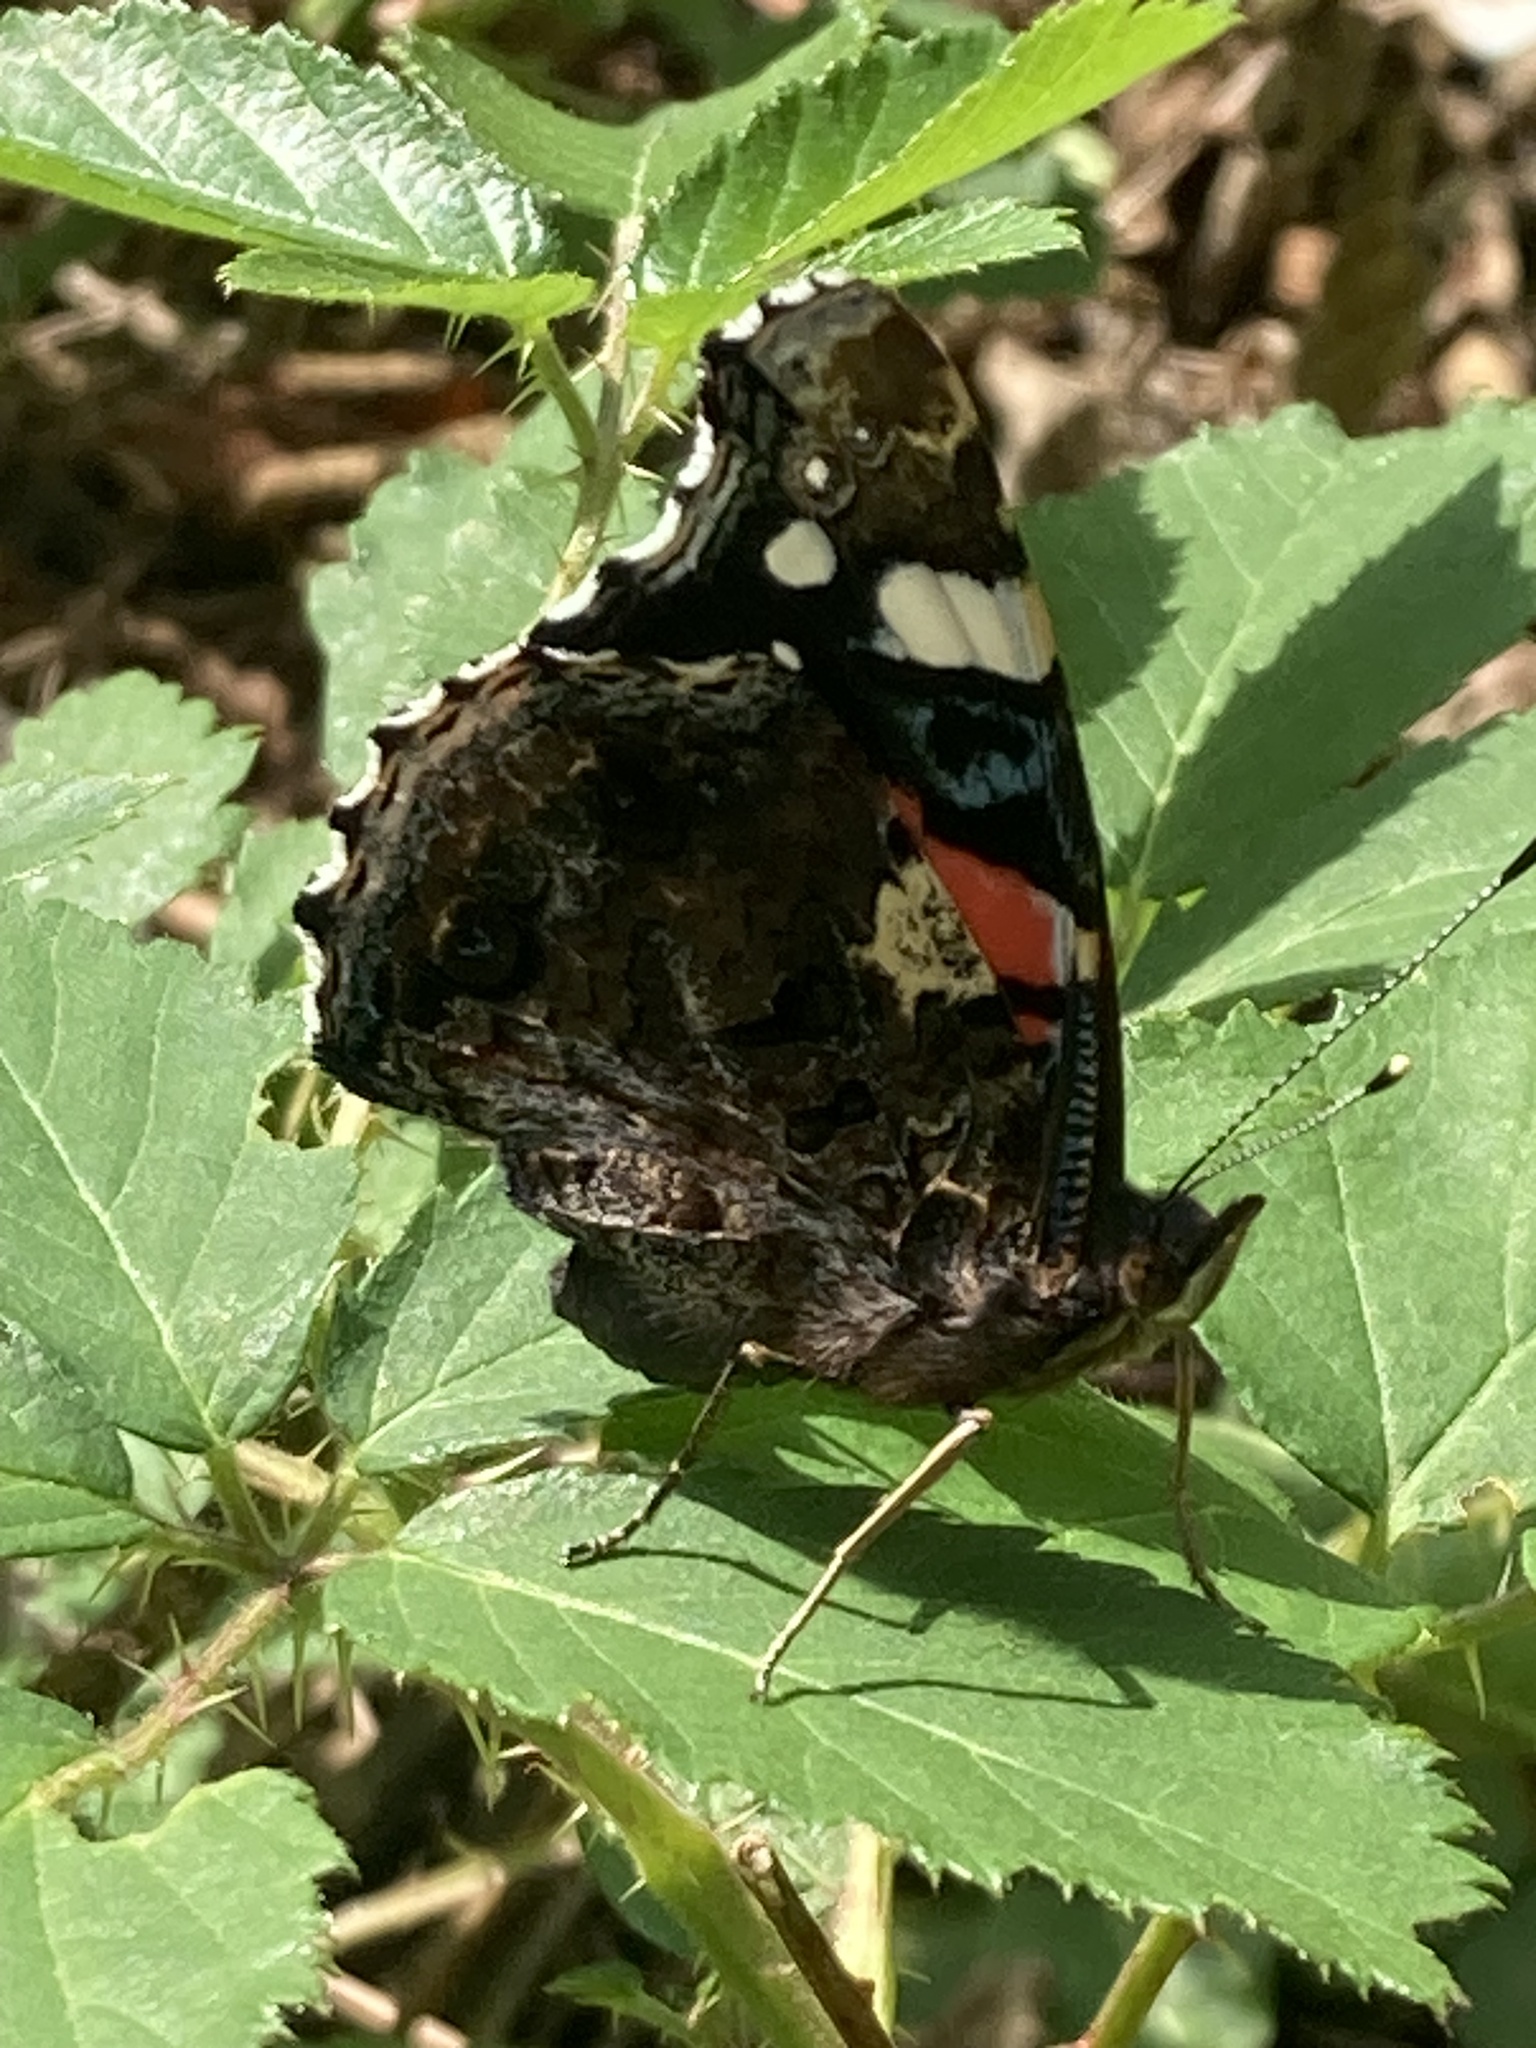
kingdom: Animalia
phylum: Arthropoda
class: Insecta
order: Lepidoptera
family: Nymphalidae
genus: Vanessa
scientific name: Vanessa atalanta
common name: Red admiral
